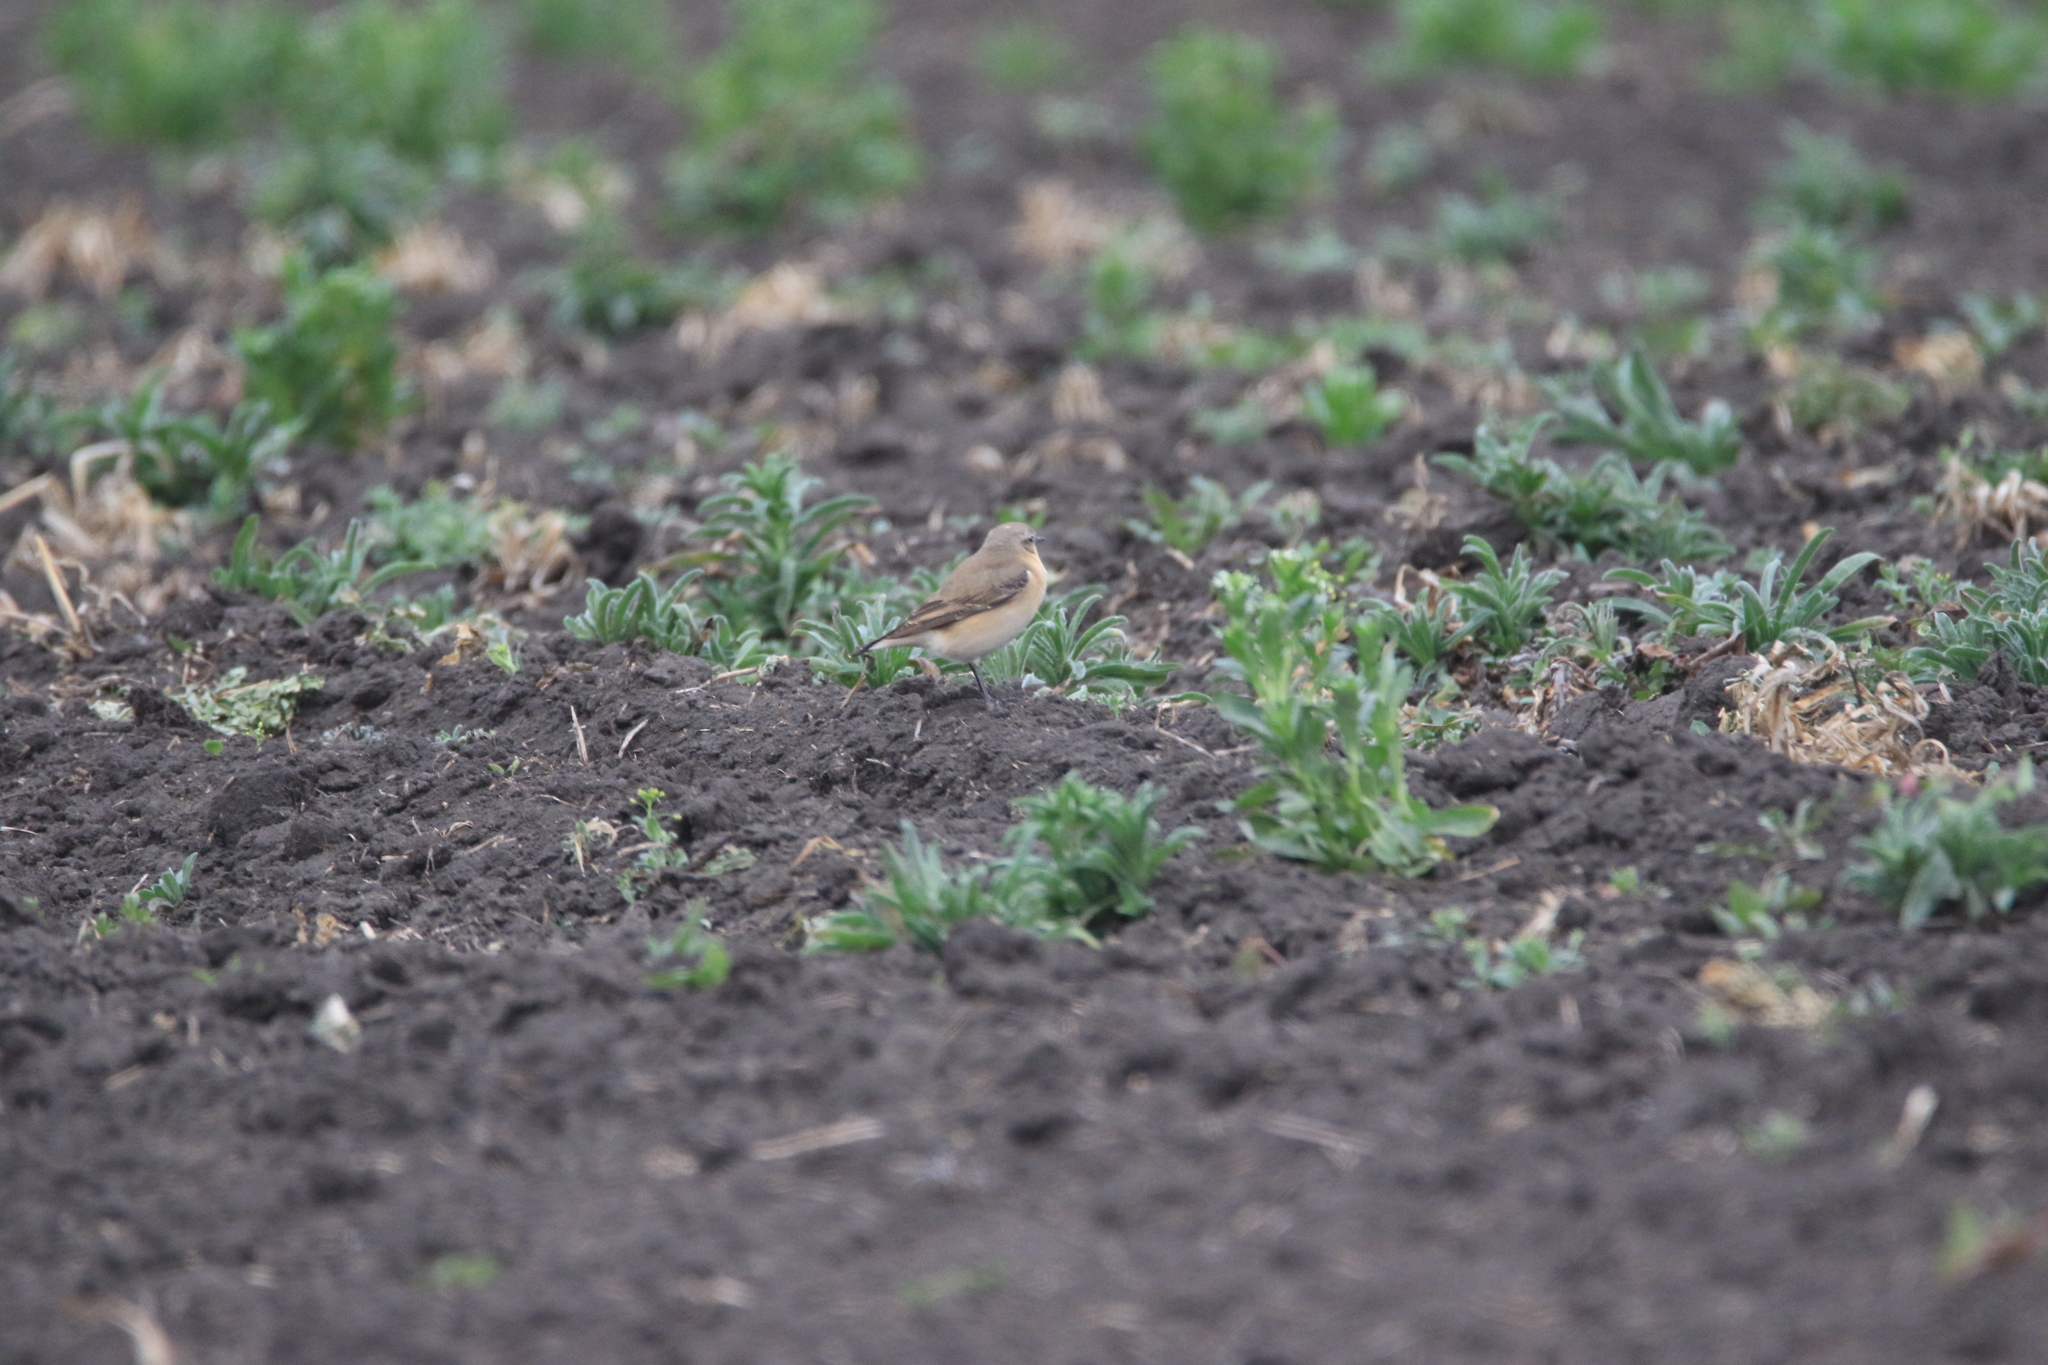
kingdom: Animalia
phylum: Chordata
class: Aves
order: Passeriformes
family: Muscicapidae
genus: Oenanthe
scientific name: Oenanthe oenanthe
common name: Northern wheatear
